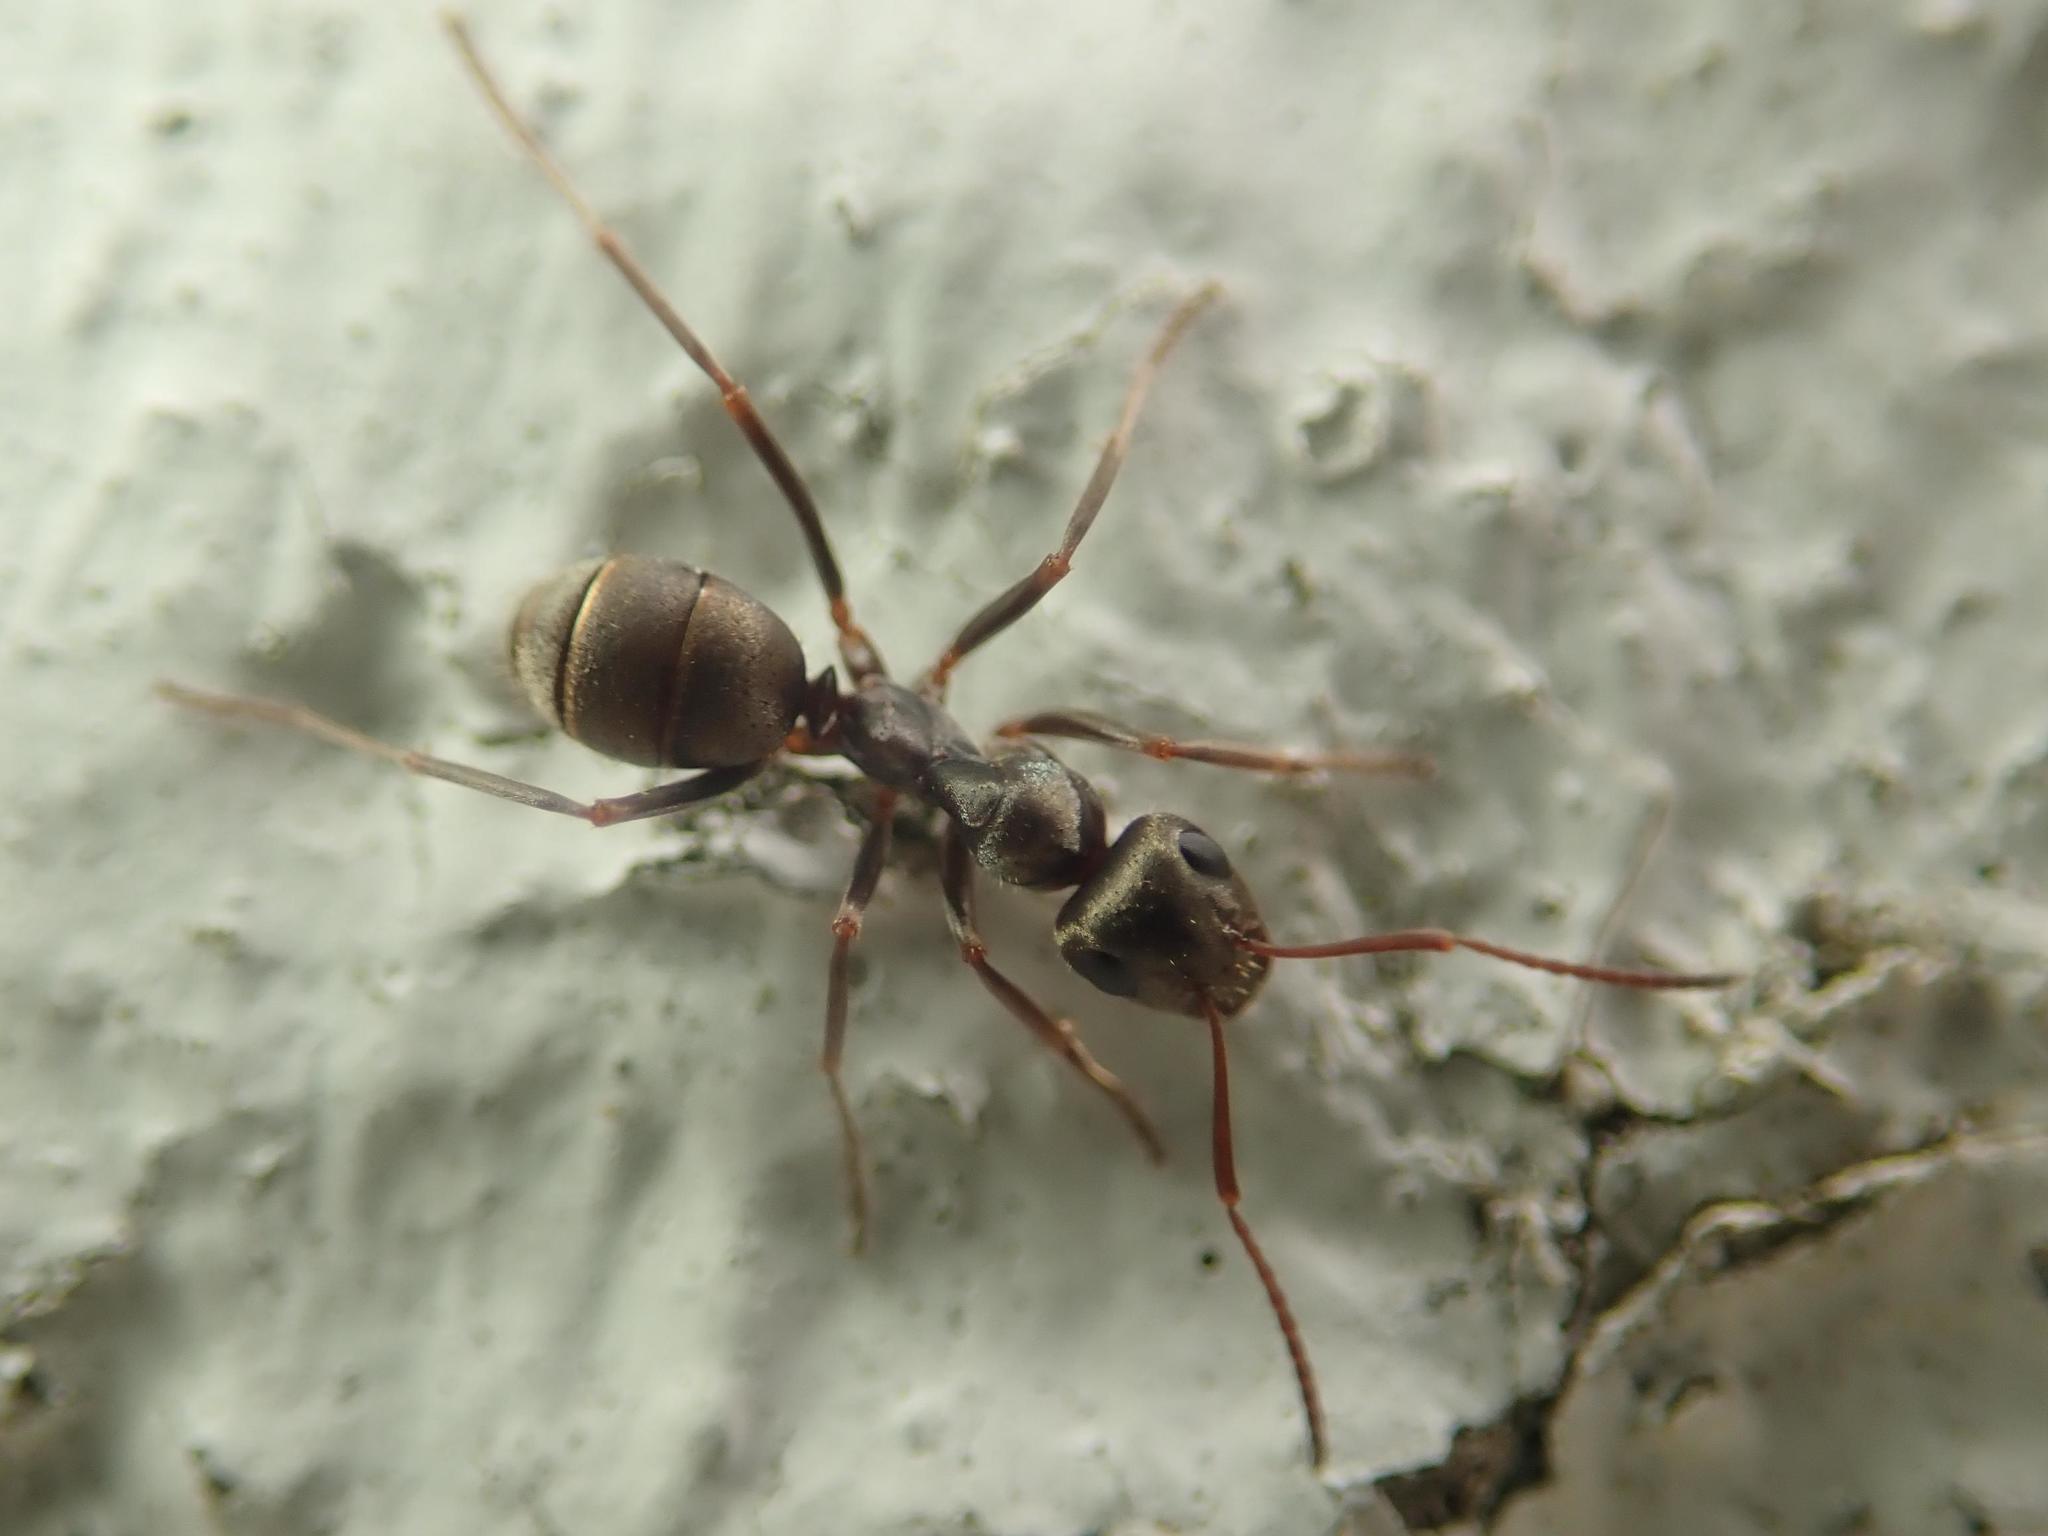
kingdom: Animalia
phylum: Arthropoda
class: Insecta
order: Hymenoptera
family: Formicidae
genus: Formica
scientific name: Formica cinerea
